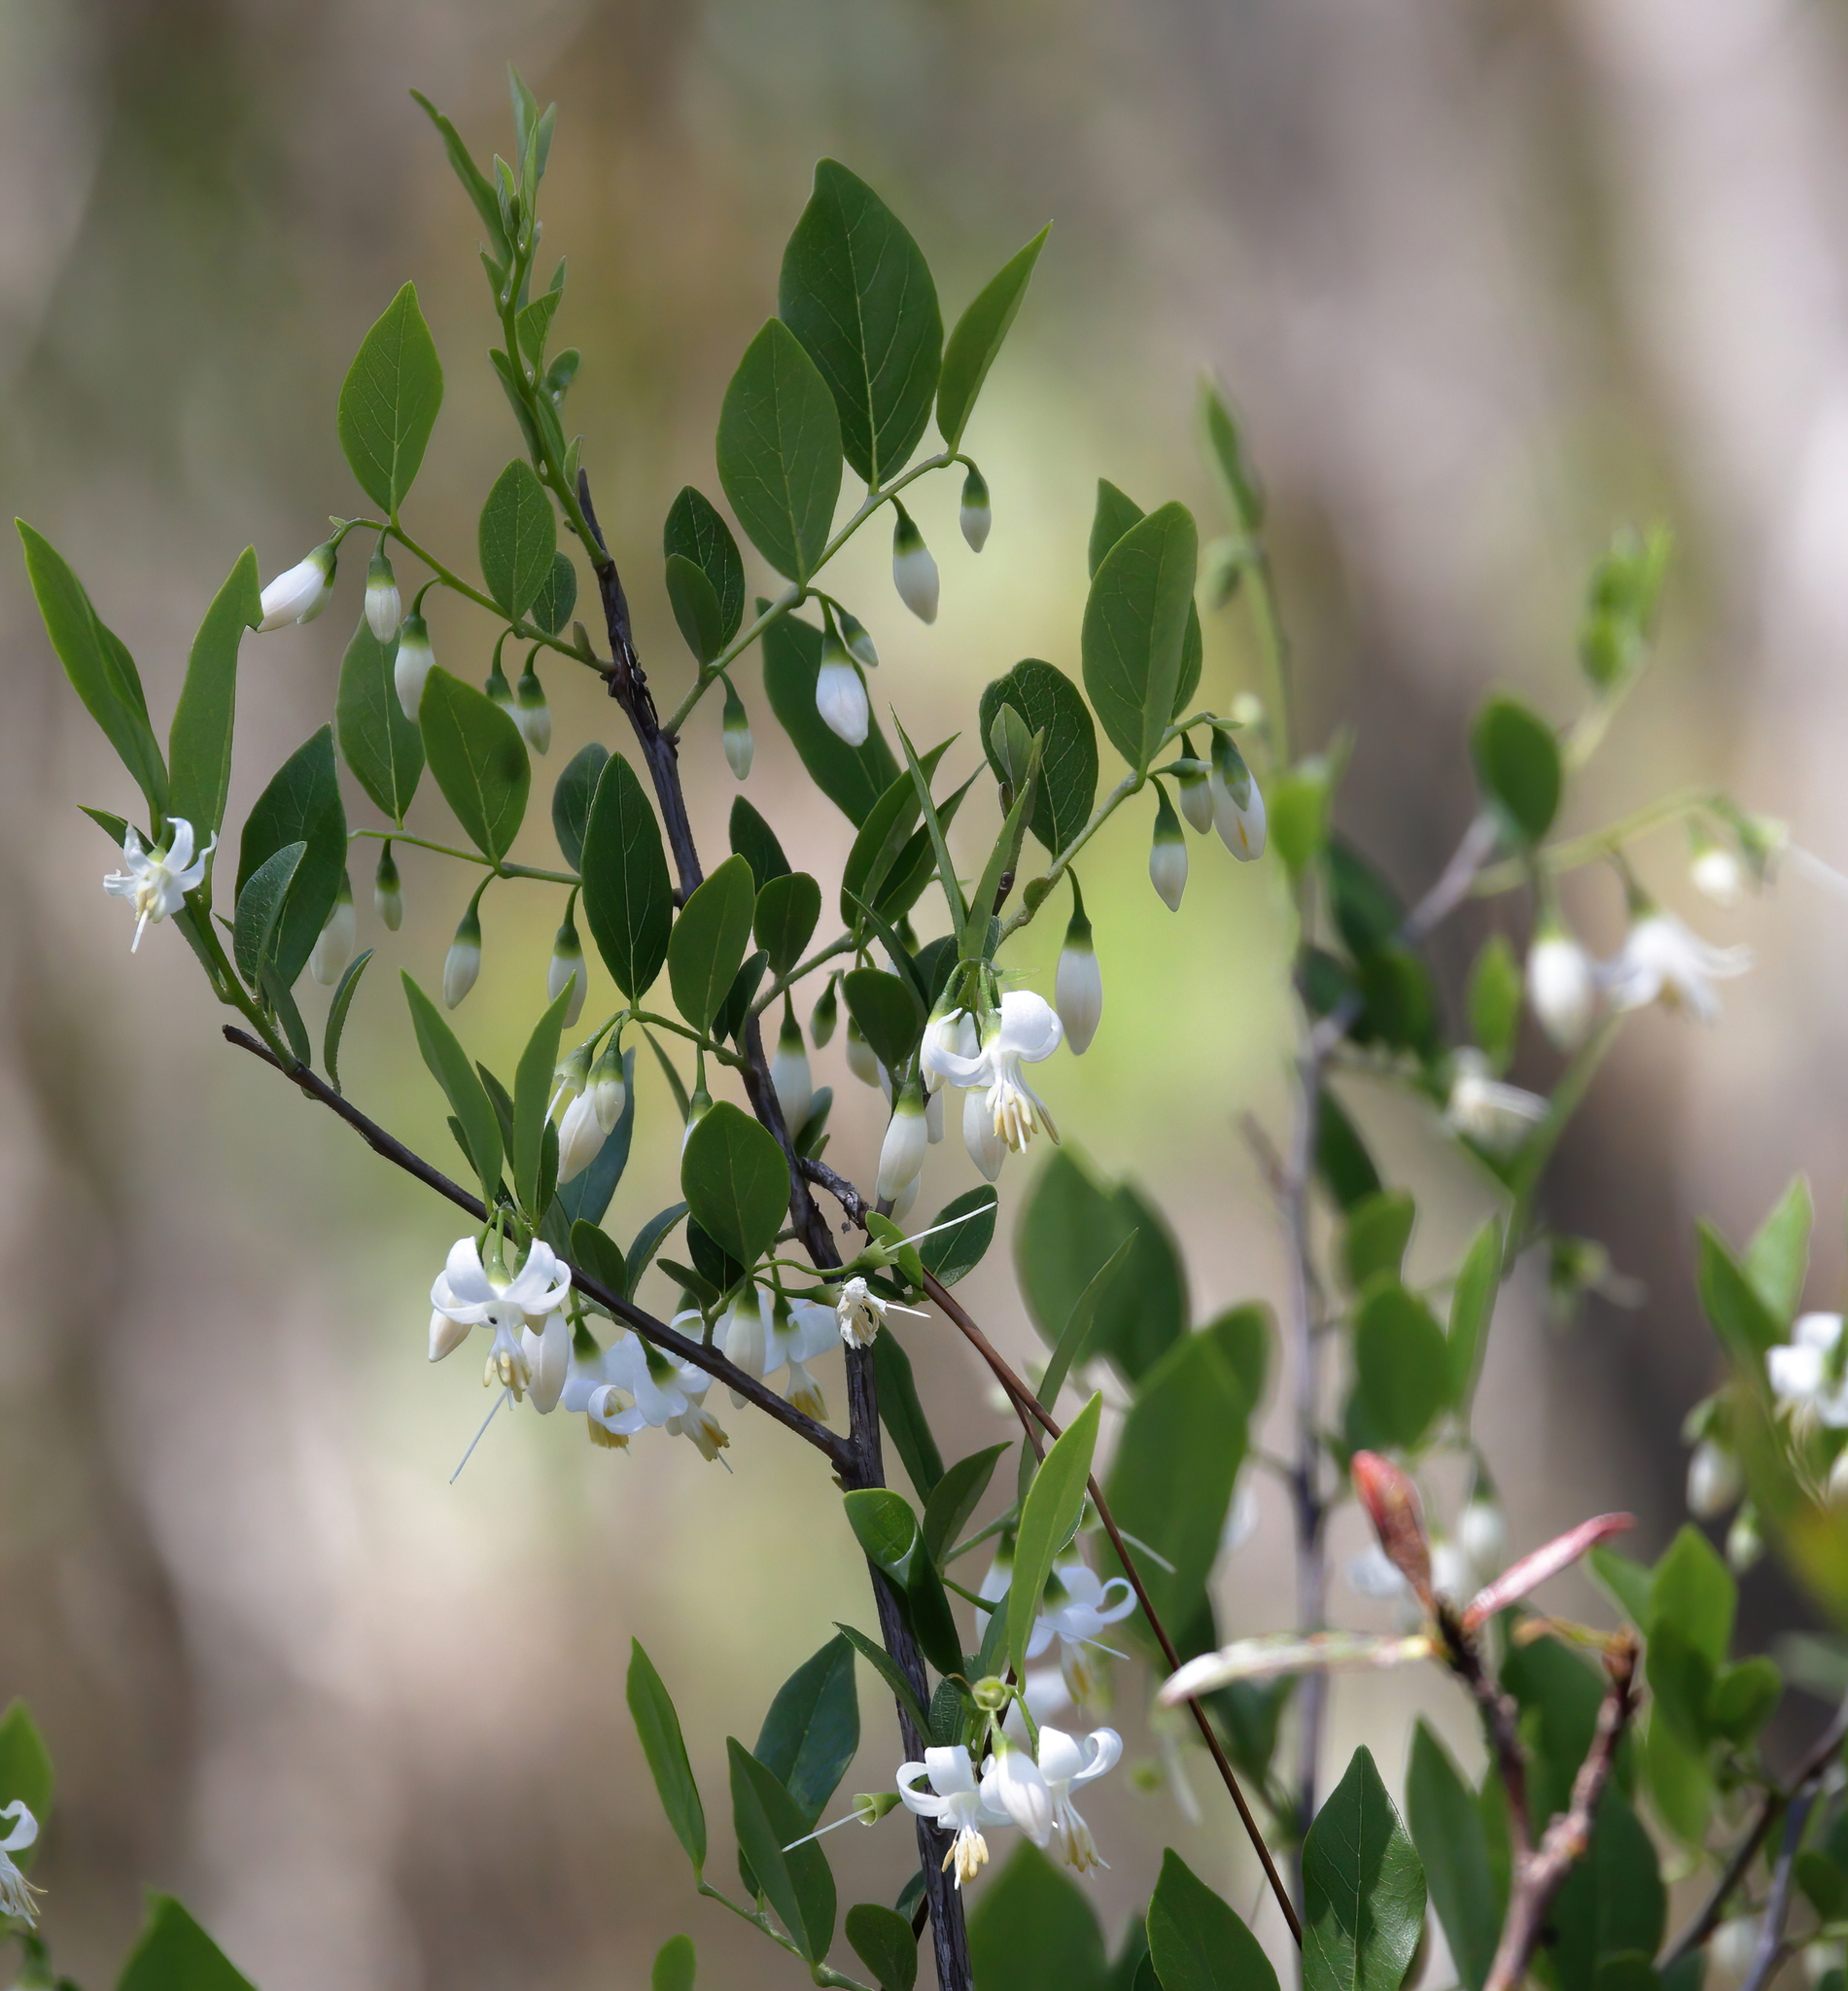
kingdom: Plantae
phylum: Tracheophyta
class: Magnoliopsida
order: Ericales
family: Styracaceae
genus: Styrax
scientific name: Styrax americanus
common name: American snowbell
